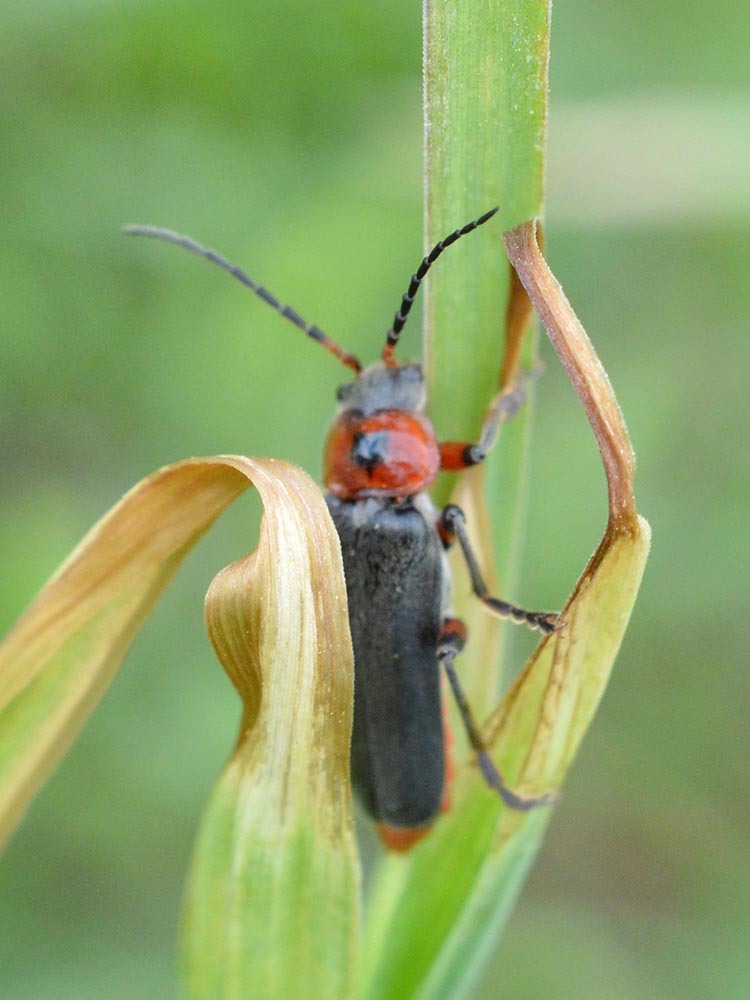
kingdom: Animalia
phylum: Arthropoda
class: Insecta
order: Coleoptera
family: Cantharidae
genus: Cantharis
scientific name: Cantharis rustica
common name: Soldier beetle
